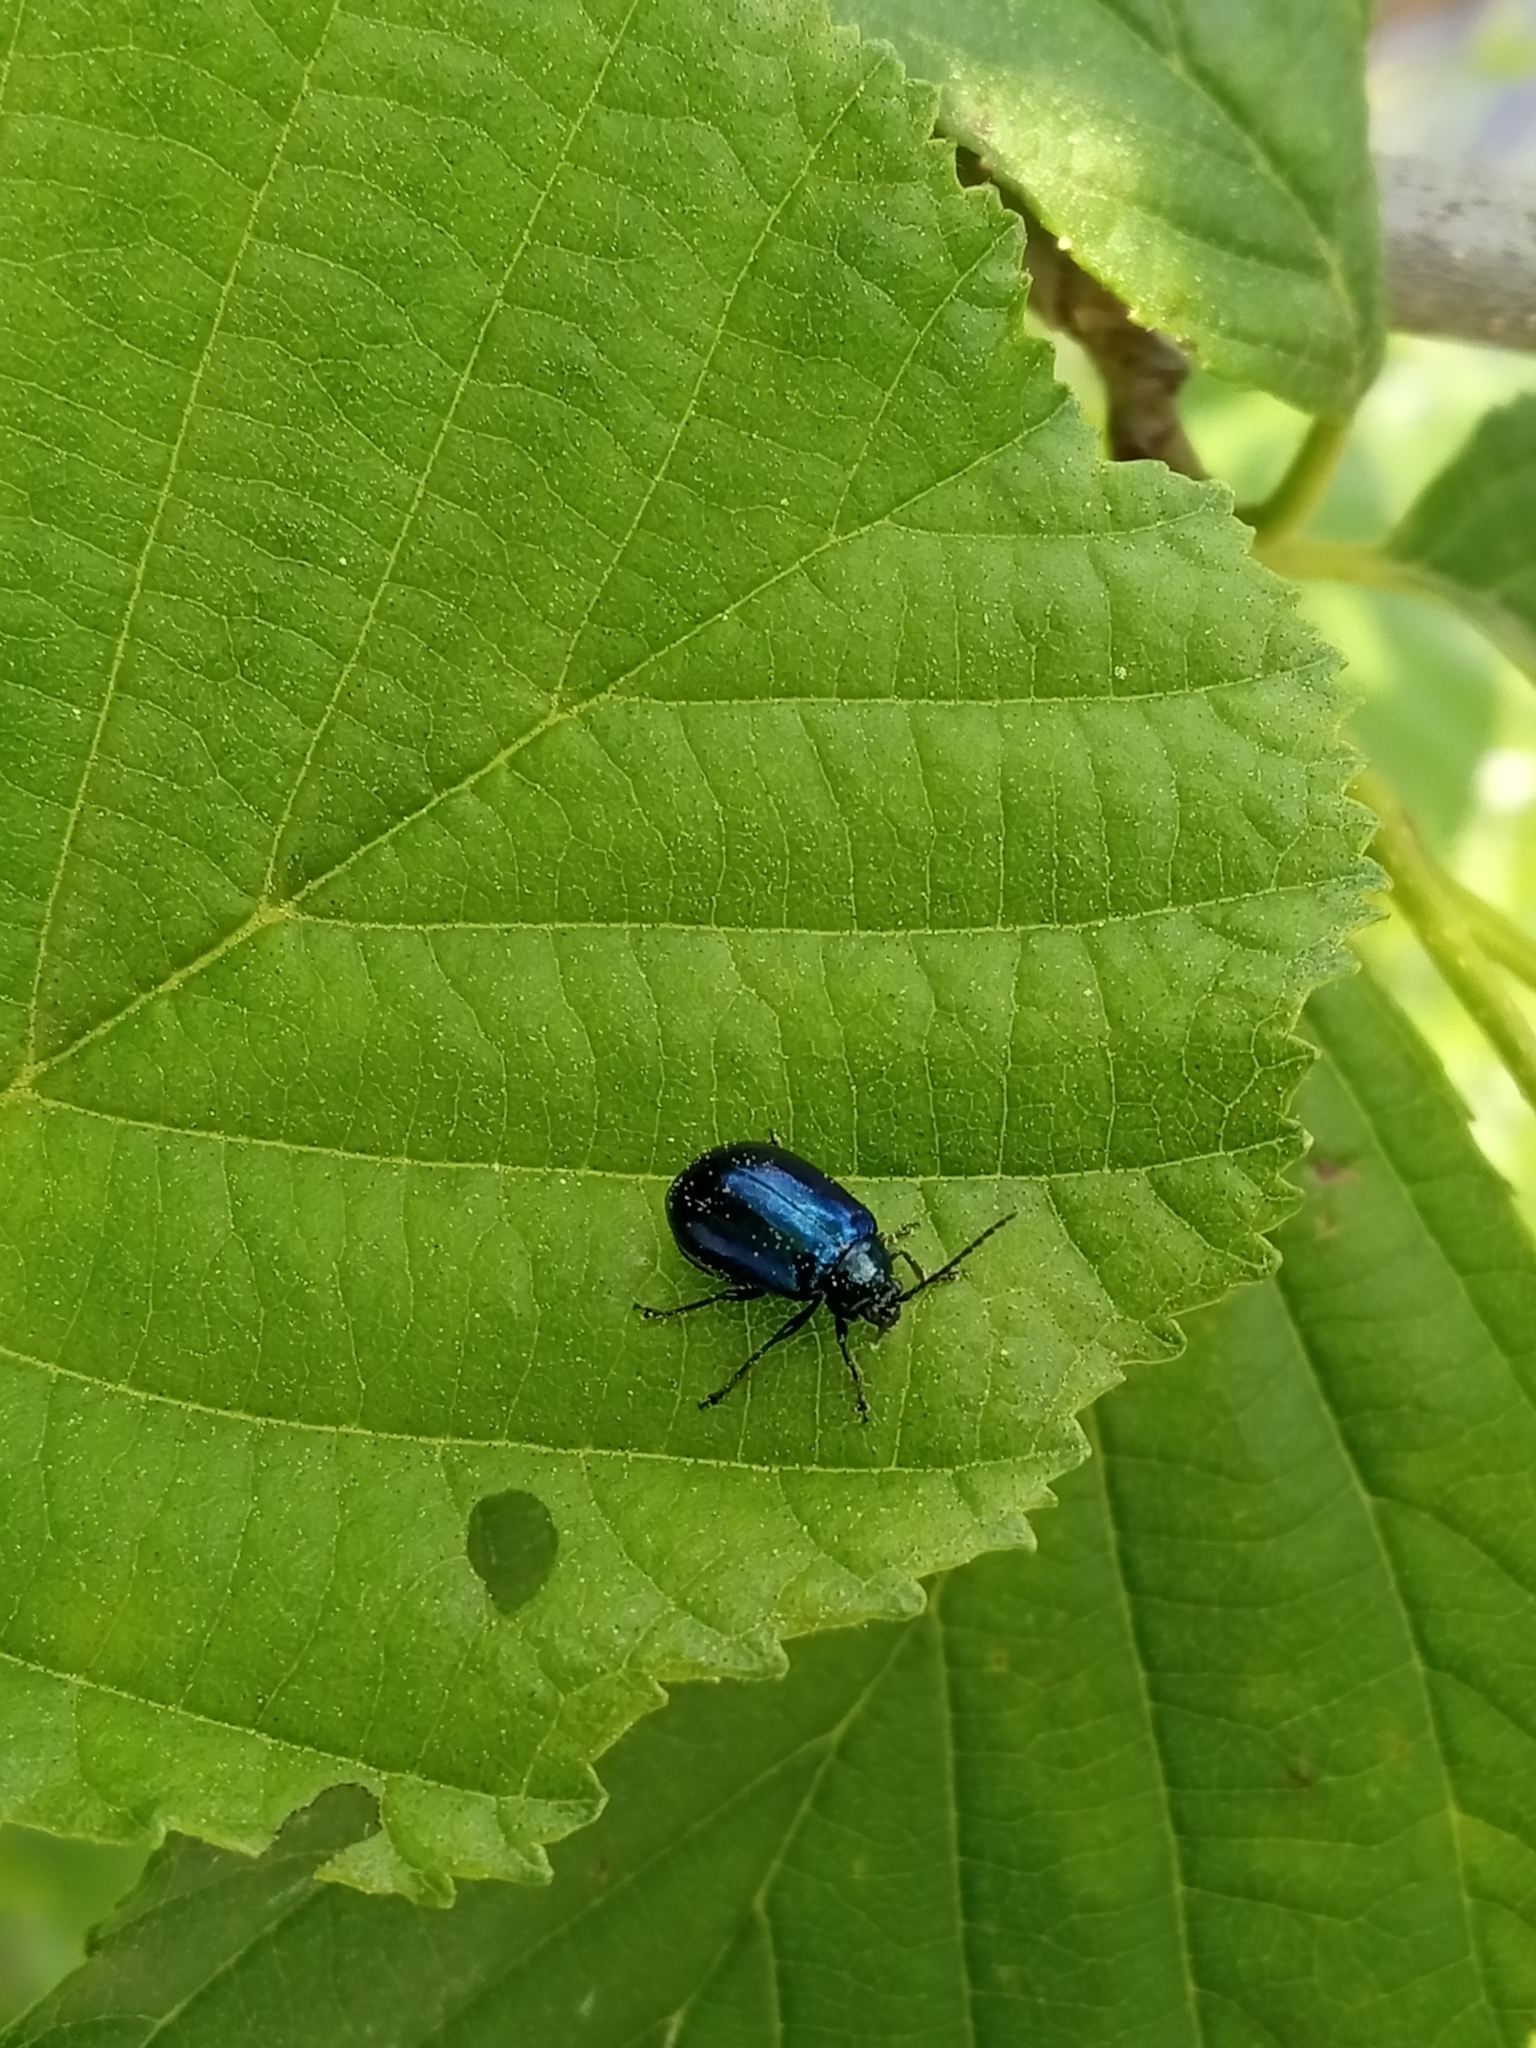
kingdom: Animalia
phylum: Arthropoda
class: Insecta
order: Coleoptera
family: Chrysomelidae
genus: Agelastica
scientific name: Agelastica alni
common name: Alder leaf beetle
